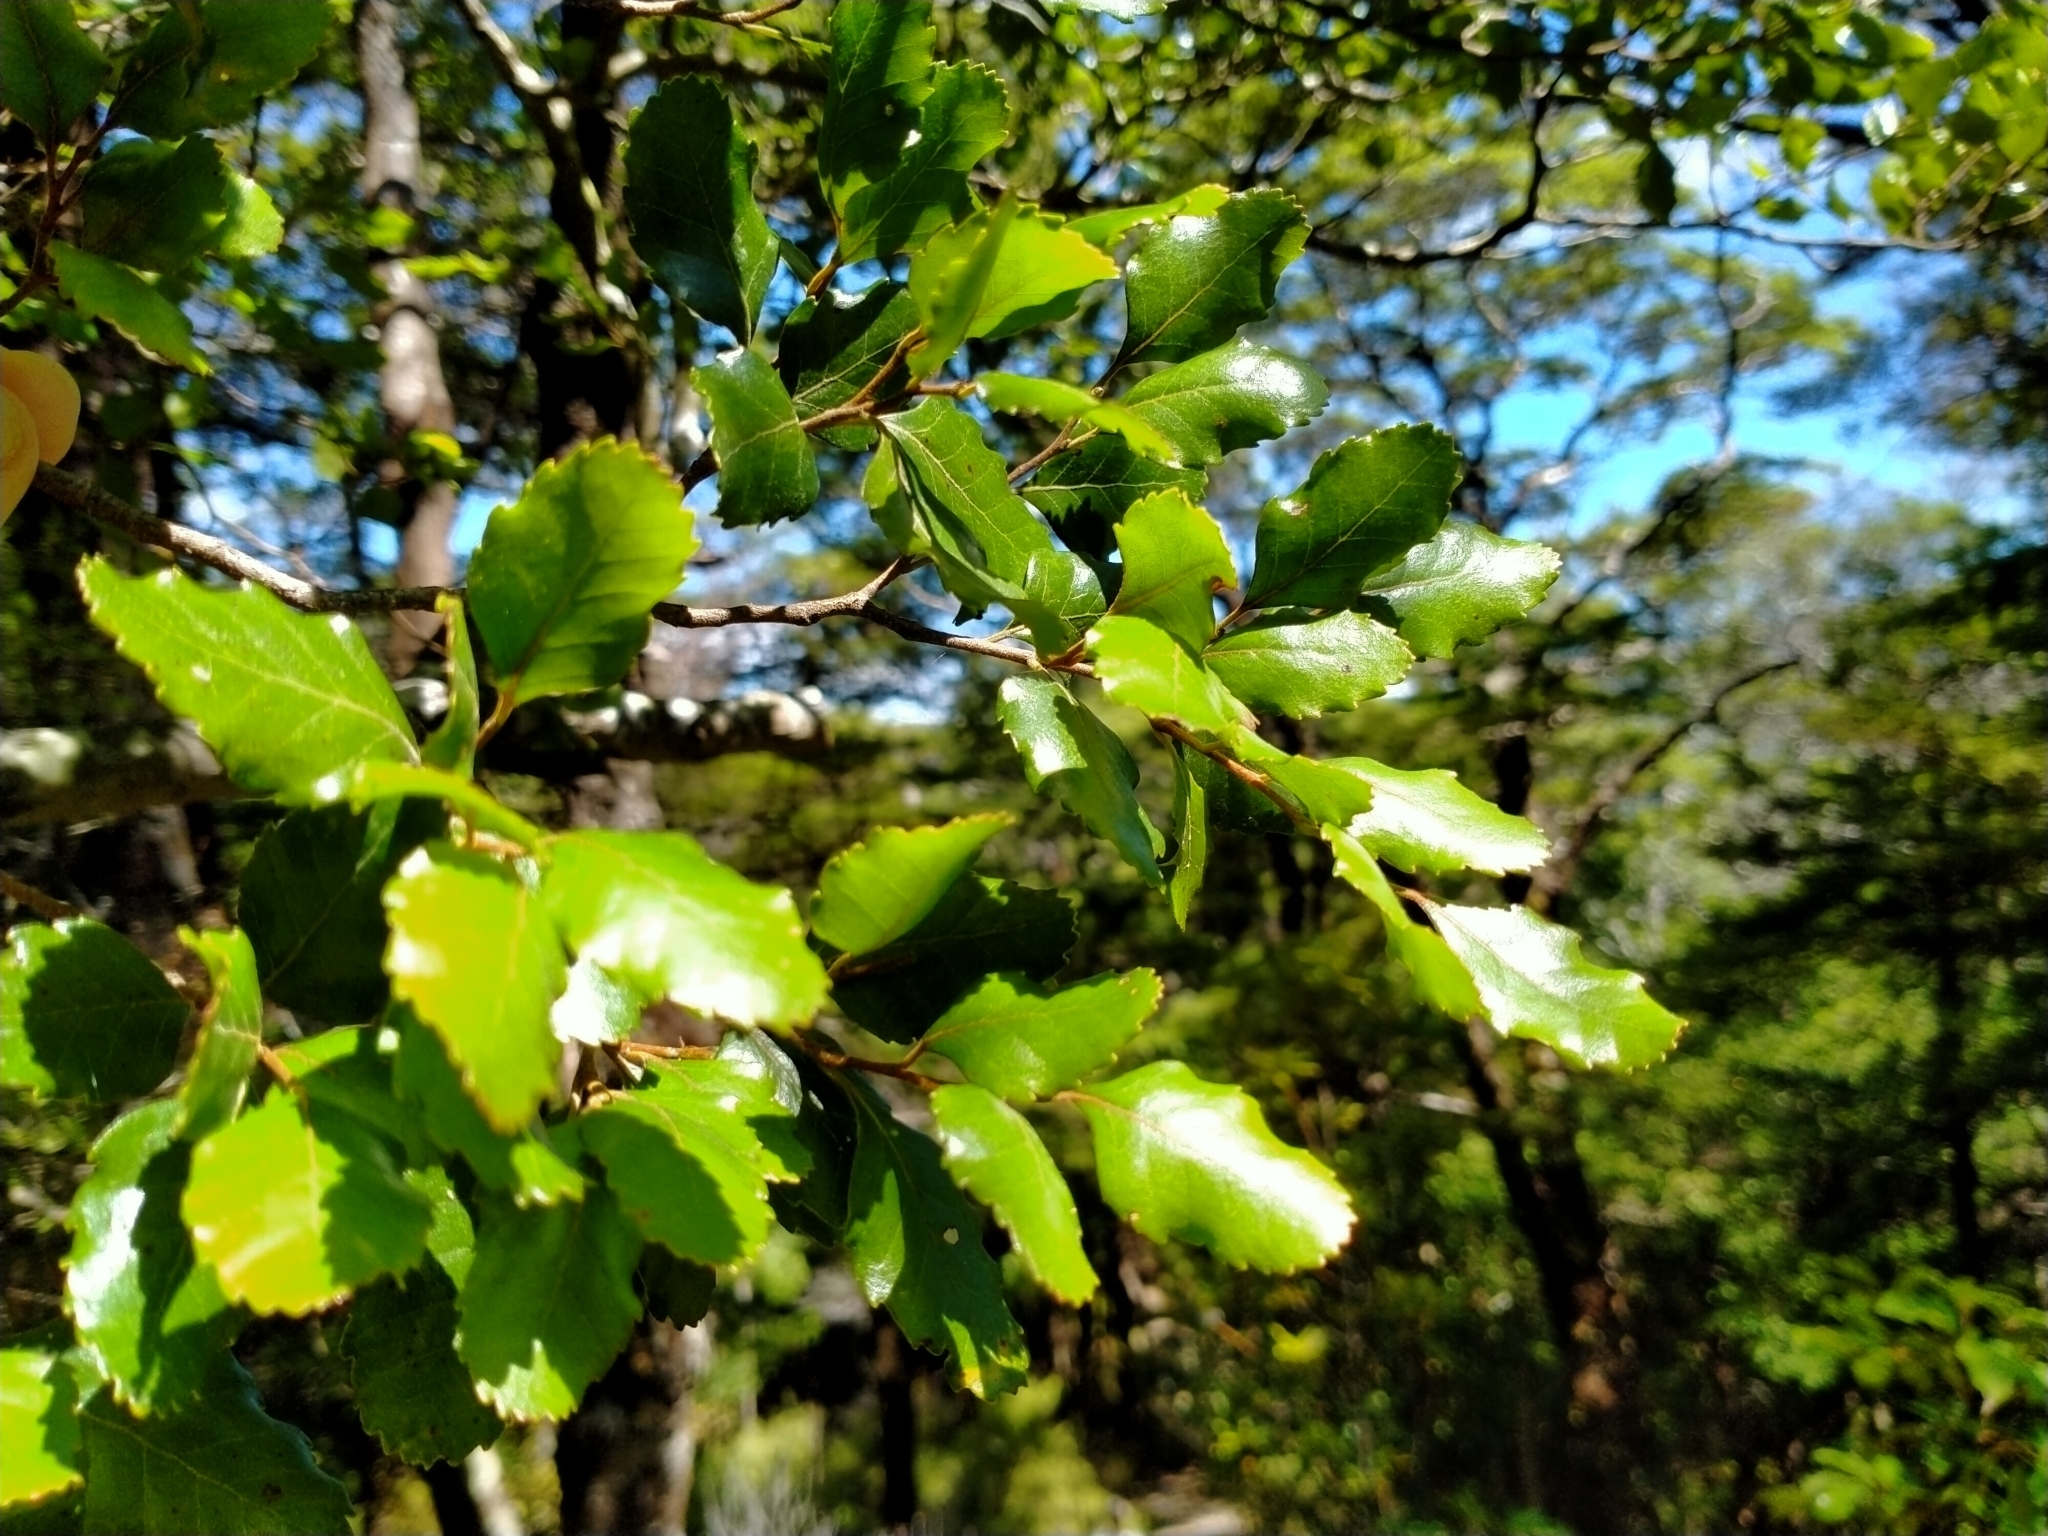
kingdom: Plantae
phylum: Tracheophyta
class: Magnoliopsida
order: Fagales
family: Nothofagaceae
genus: Nothofagus
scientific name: Nothofagus truncata
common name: Hard beech
